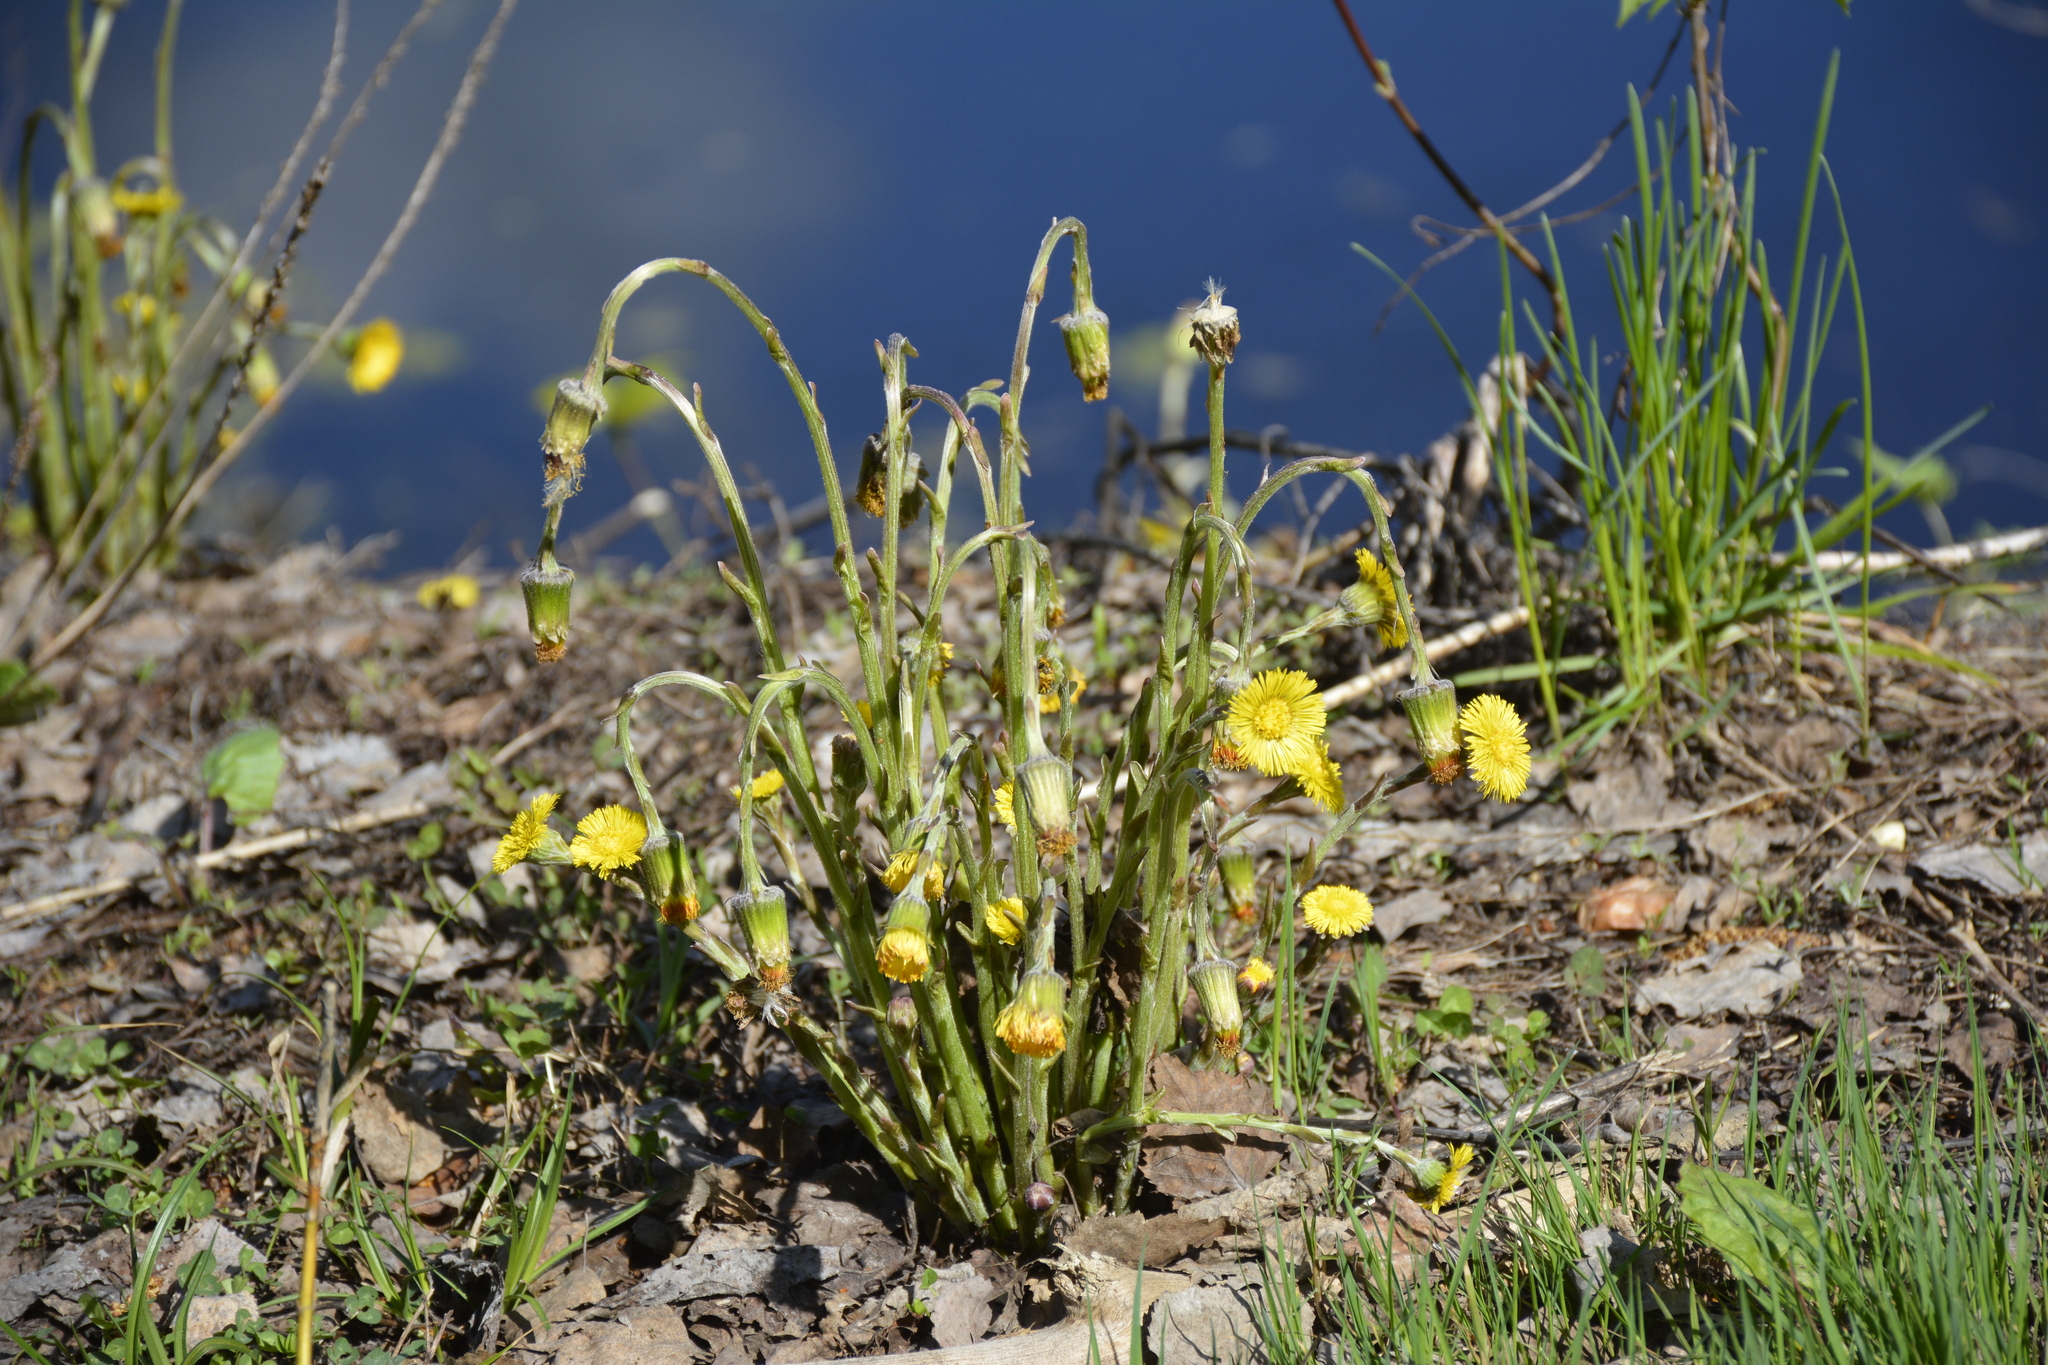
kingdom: Plantae
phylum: Tracheophyta
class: Magnoliopsida
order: Asterales
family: Asteraceae
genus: Tussilago
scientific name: Tussilago farfara
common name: Coltsfoot
